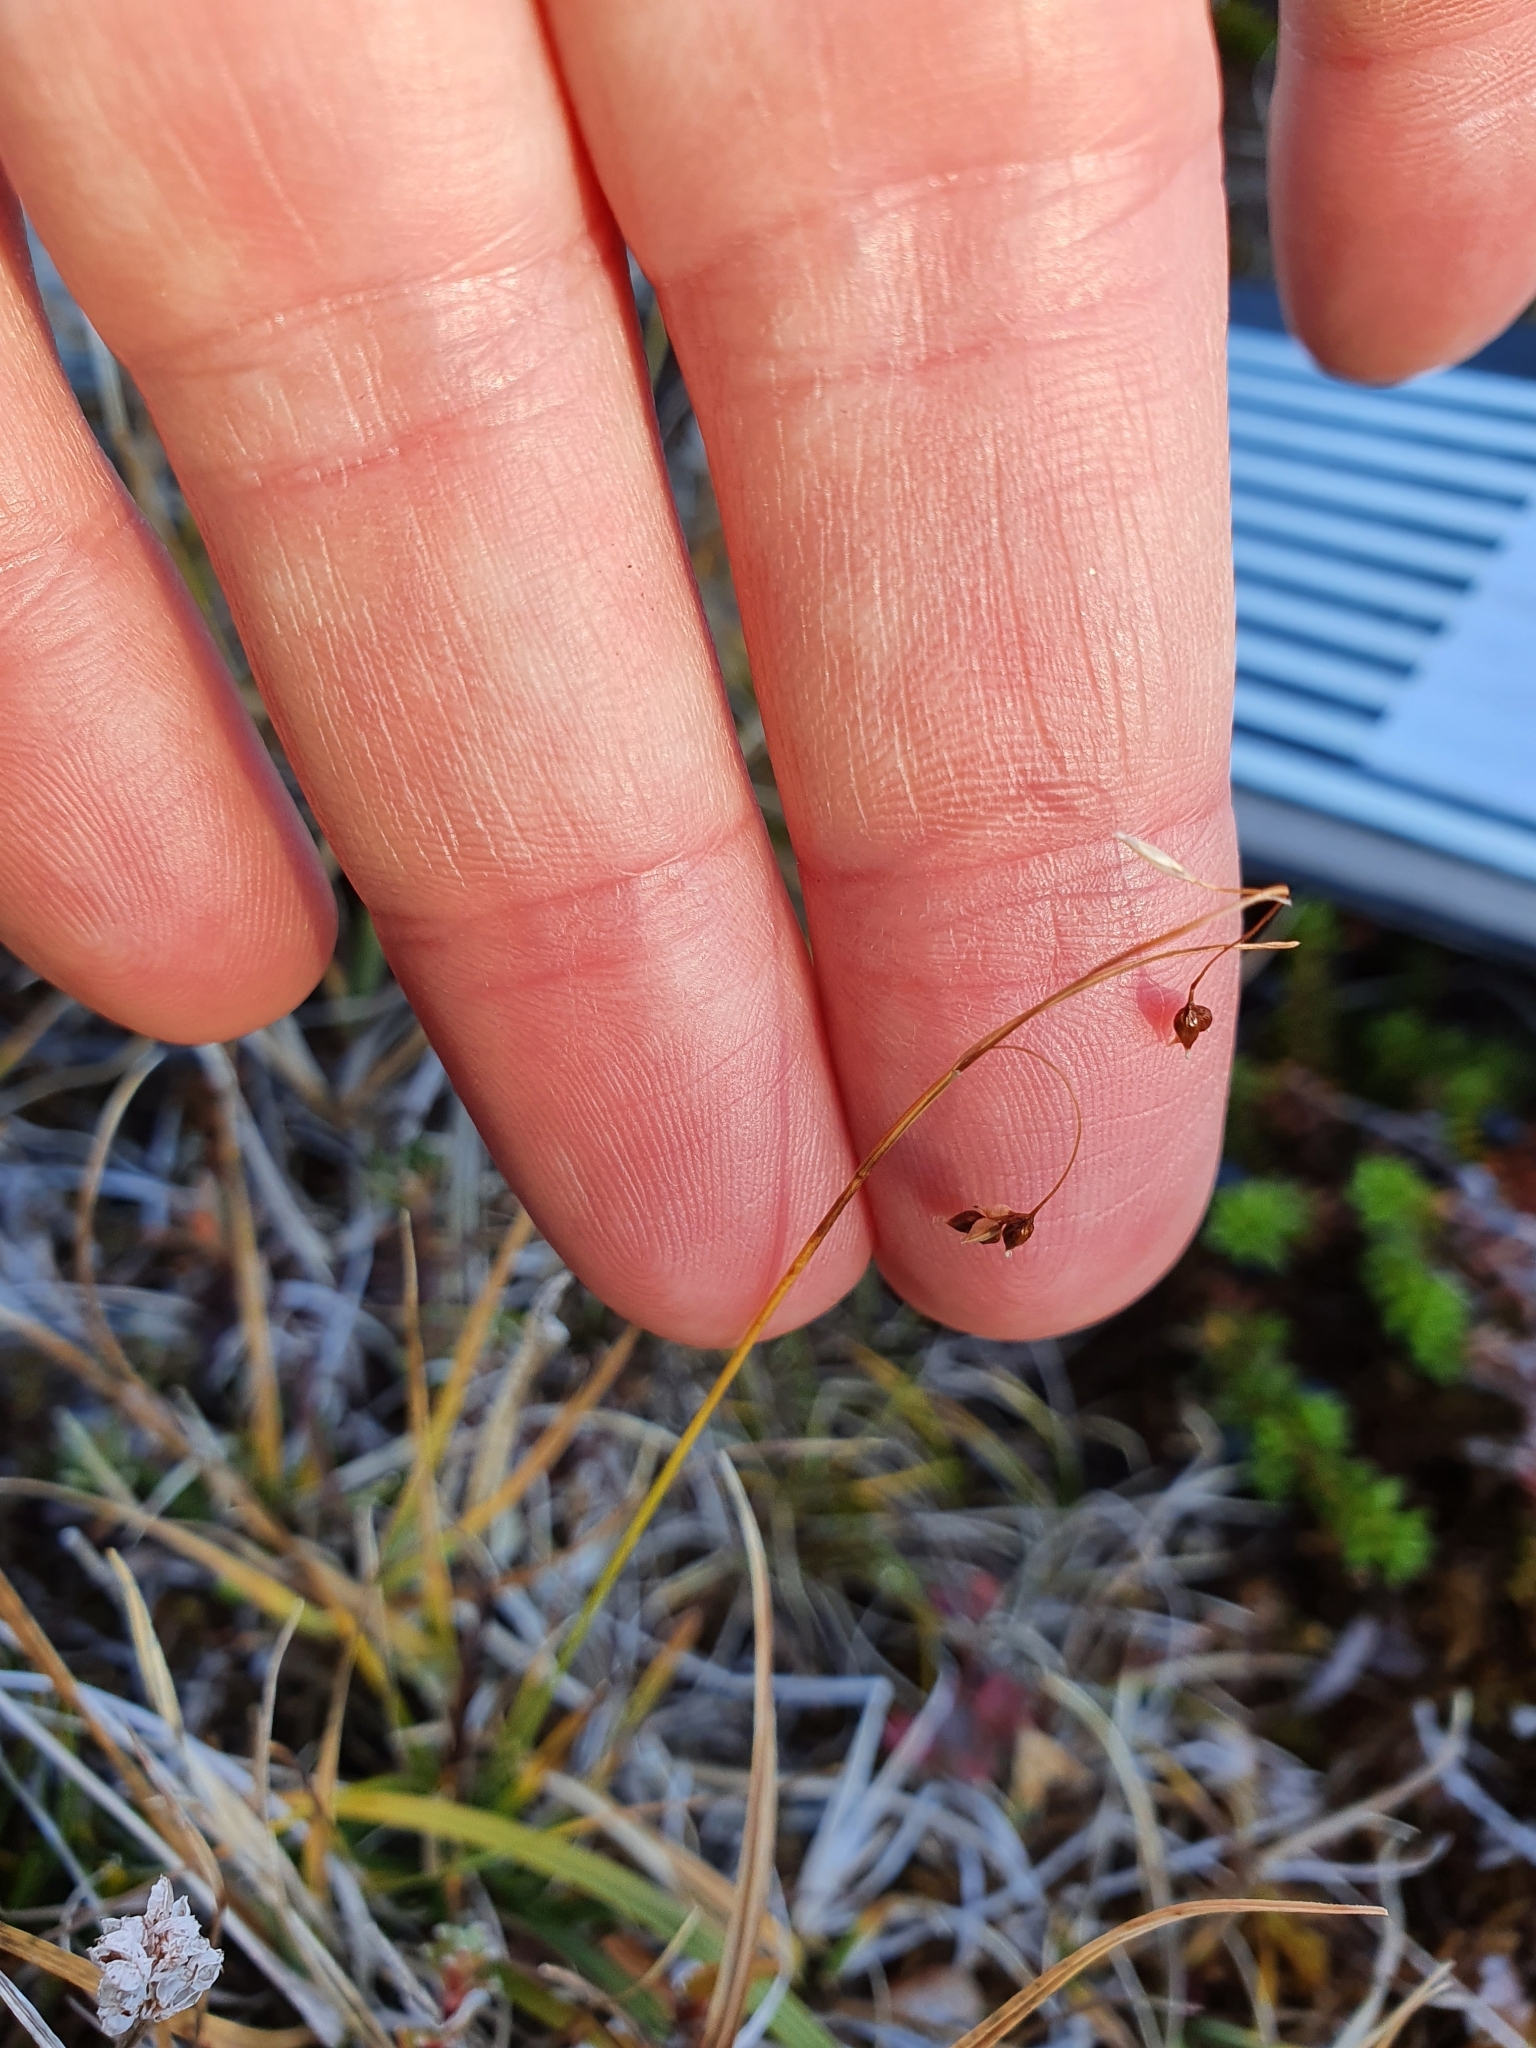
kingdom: Plantae
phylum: Tracheophyta
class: Liliopsida
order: Poales
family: Cyperaceae
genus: Carex
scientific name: Carex capillaris
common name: Hair sedge
